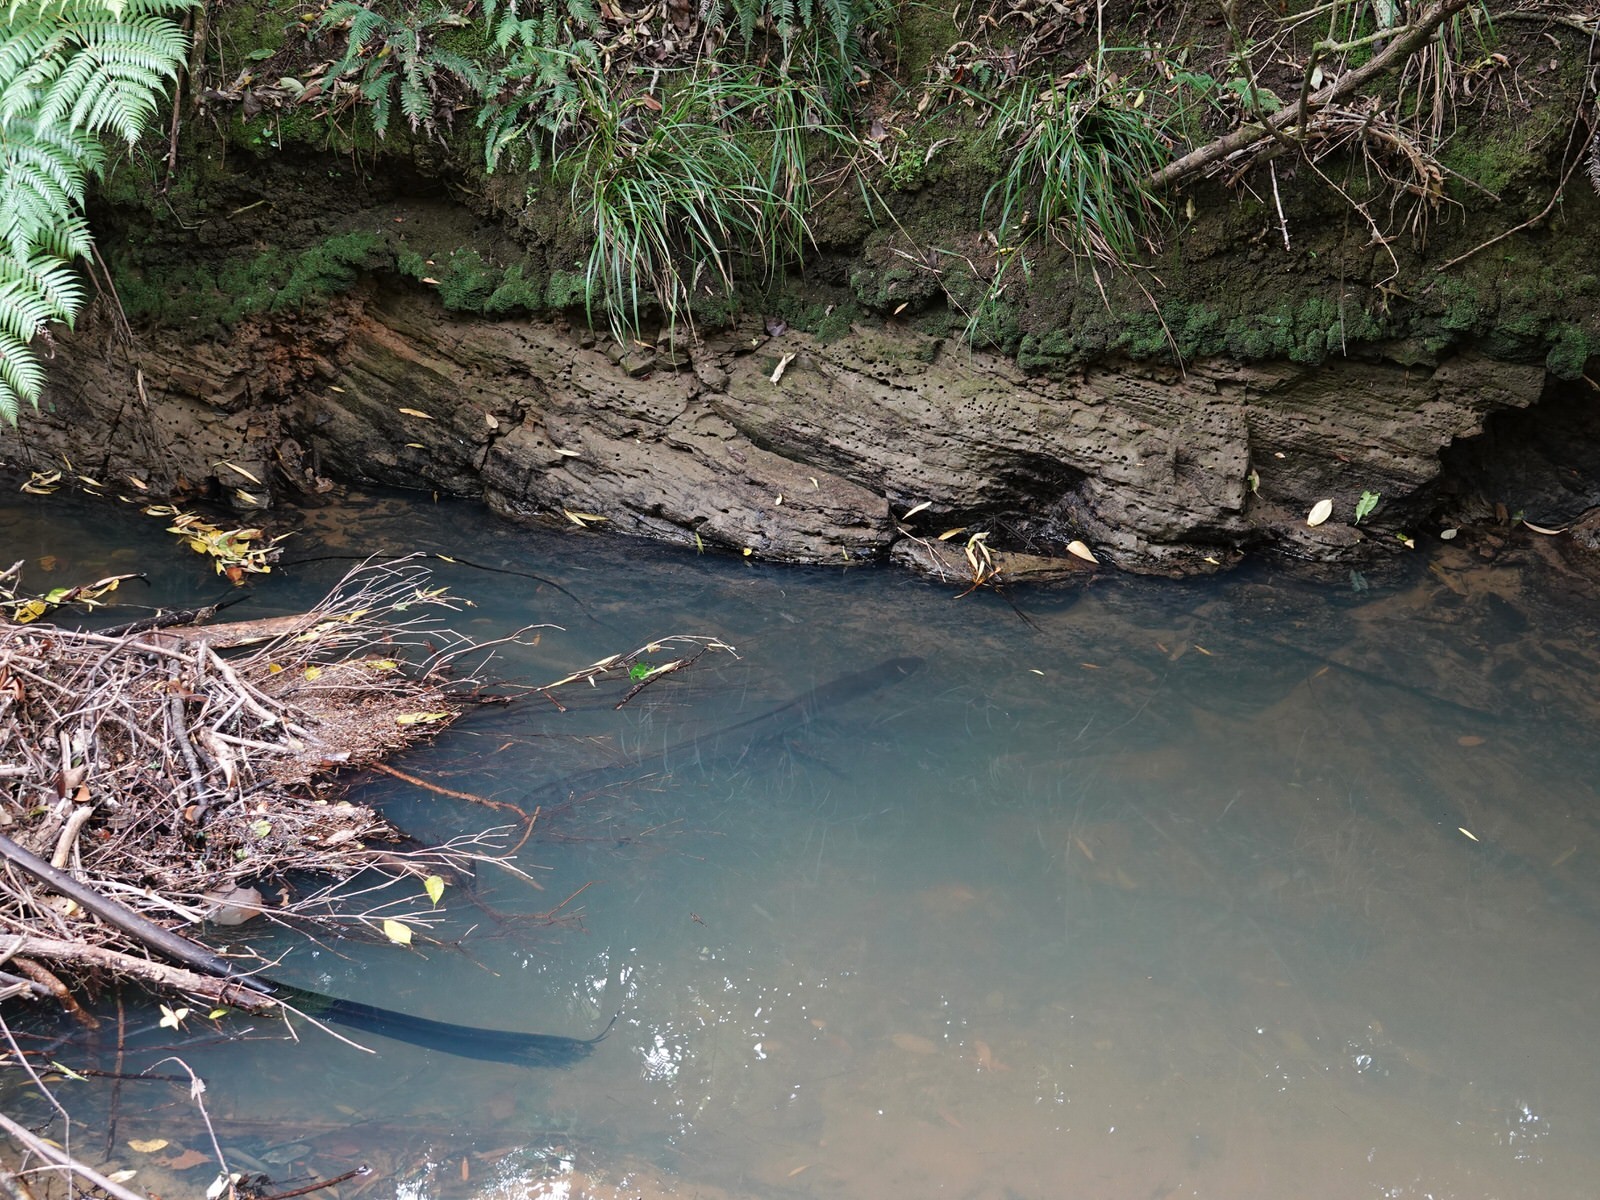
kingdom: Animalia
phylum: Chordata
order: Anguilliformes
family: Anguillidae
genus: Anguilla
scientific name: Anguilla dieffenbachii
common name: New zealand longfin eel
